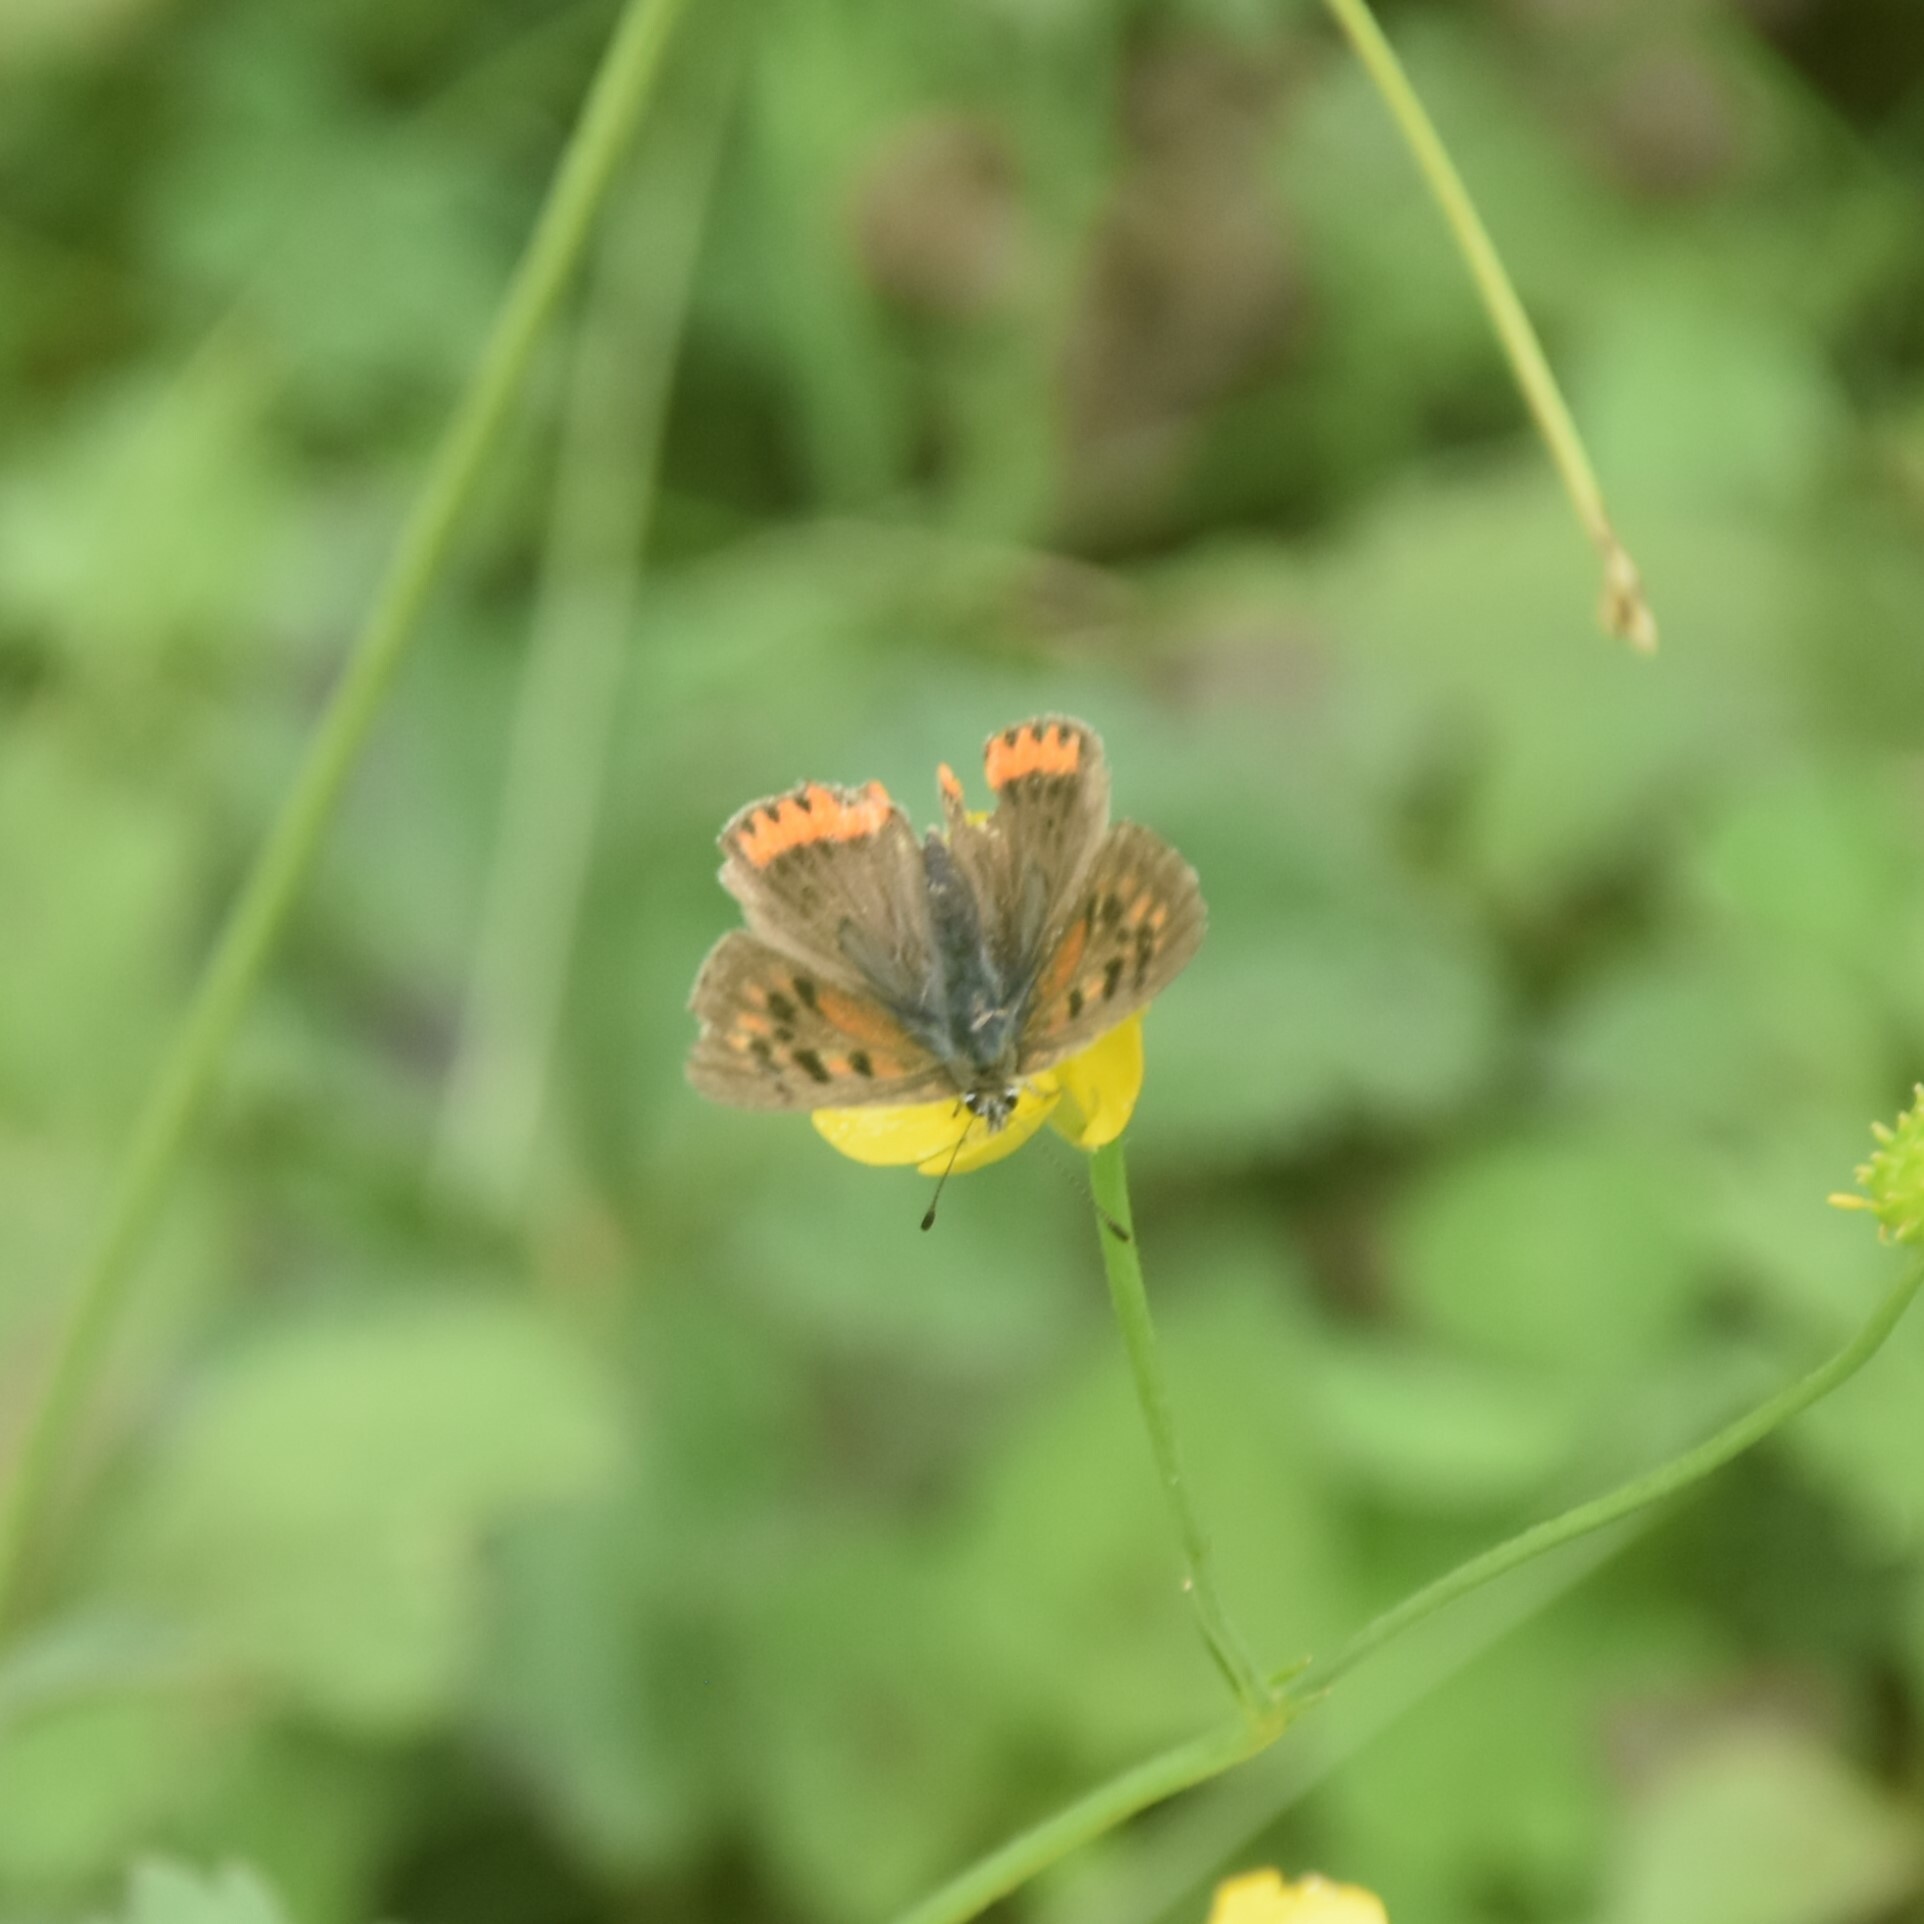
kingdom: Animalia
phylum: Arthropoda
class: Insecta
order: Lepidoptera
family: Lycaenidae
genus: Lycaena
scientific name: Lycaena phlaeas
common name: Small copper
